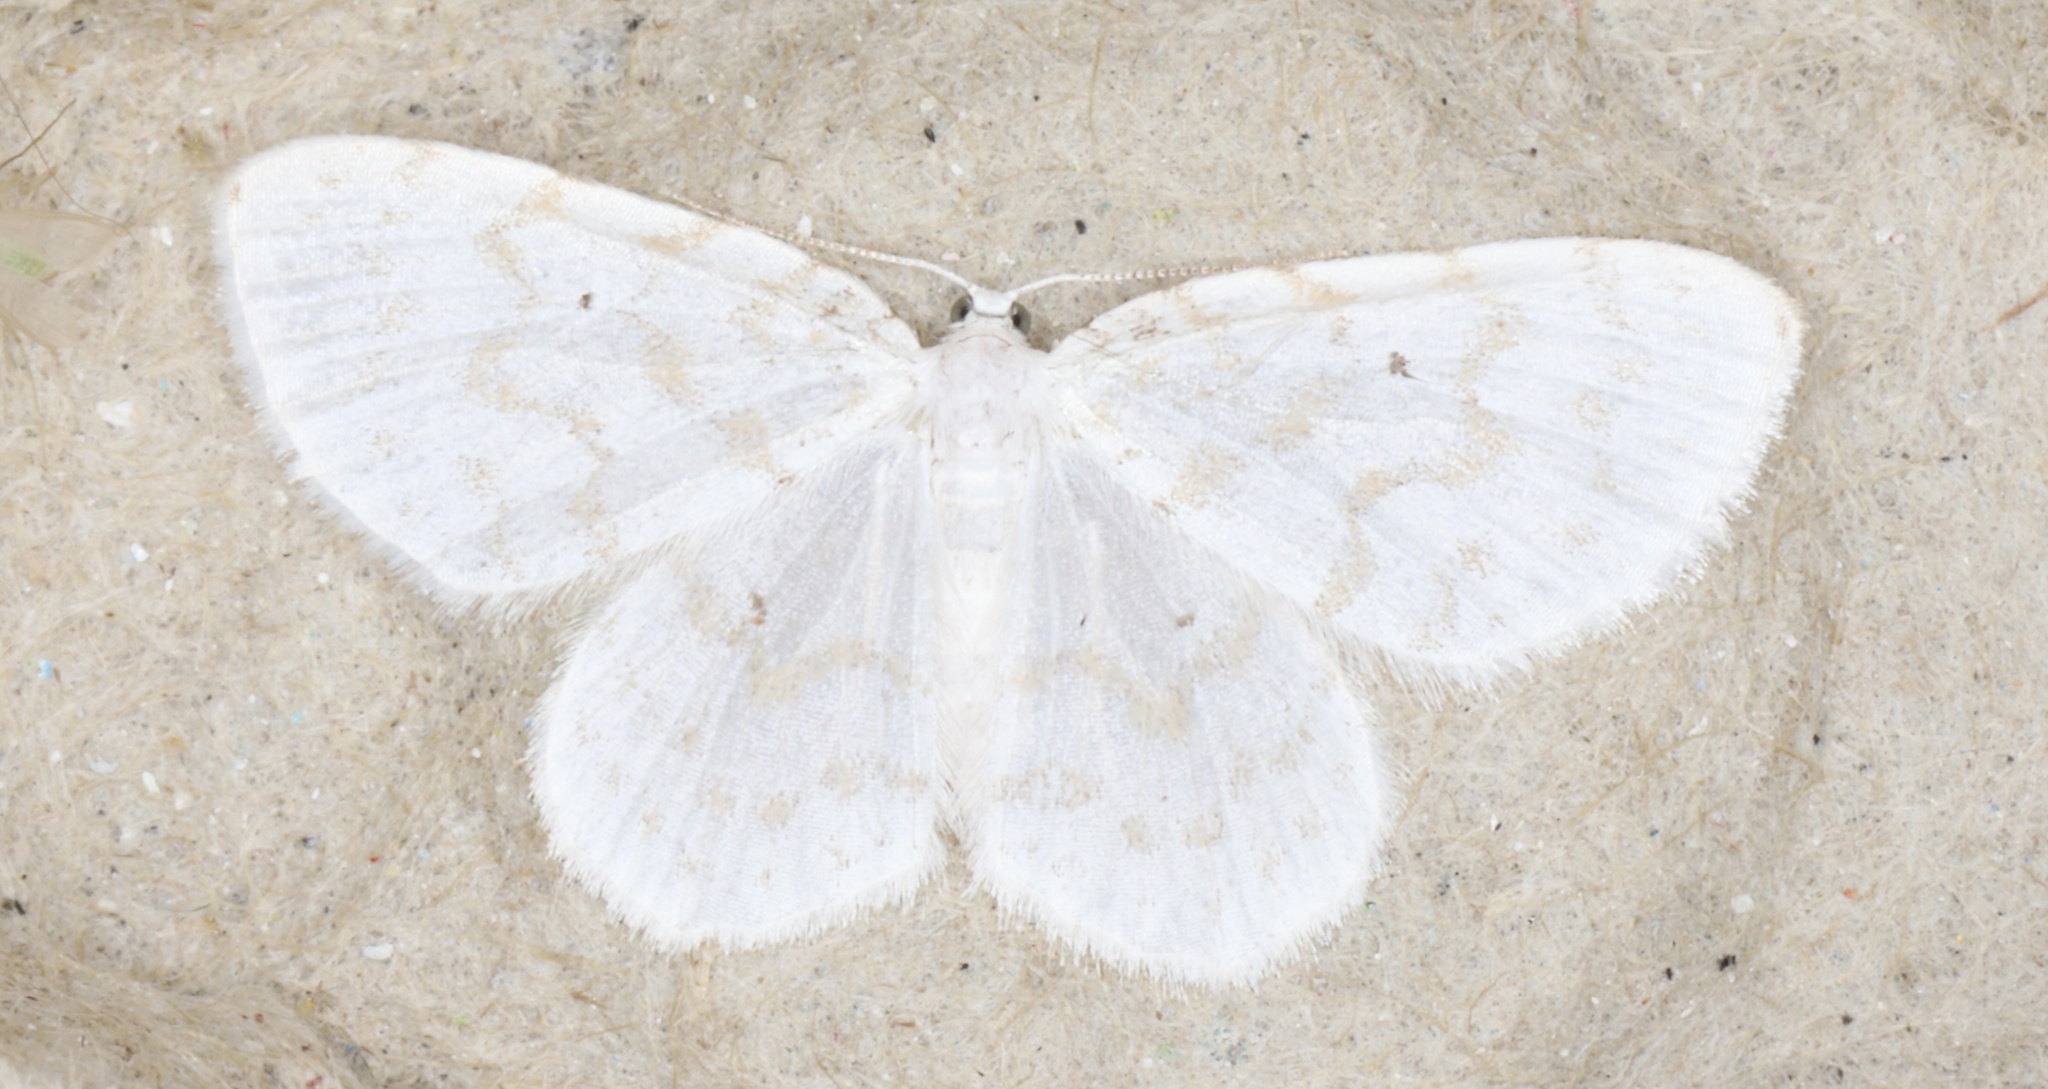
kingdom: Animalia
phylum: Arthropoda
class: Insecta
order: Lepidoptera
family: Geometridae
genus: Hydrelia
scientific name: Hydrelia albifera
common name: Fragile white carpet
